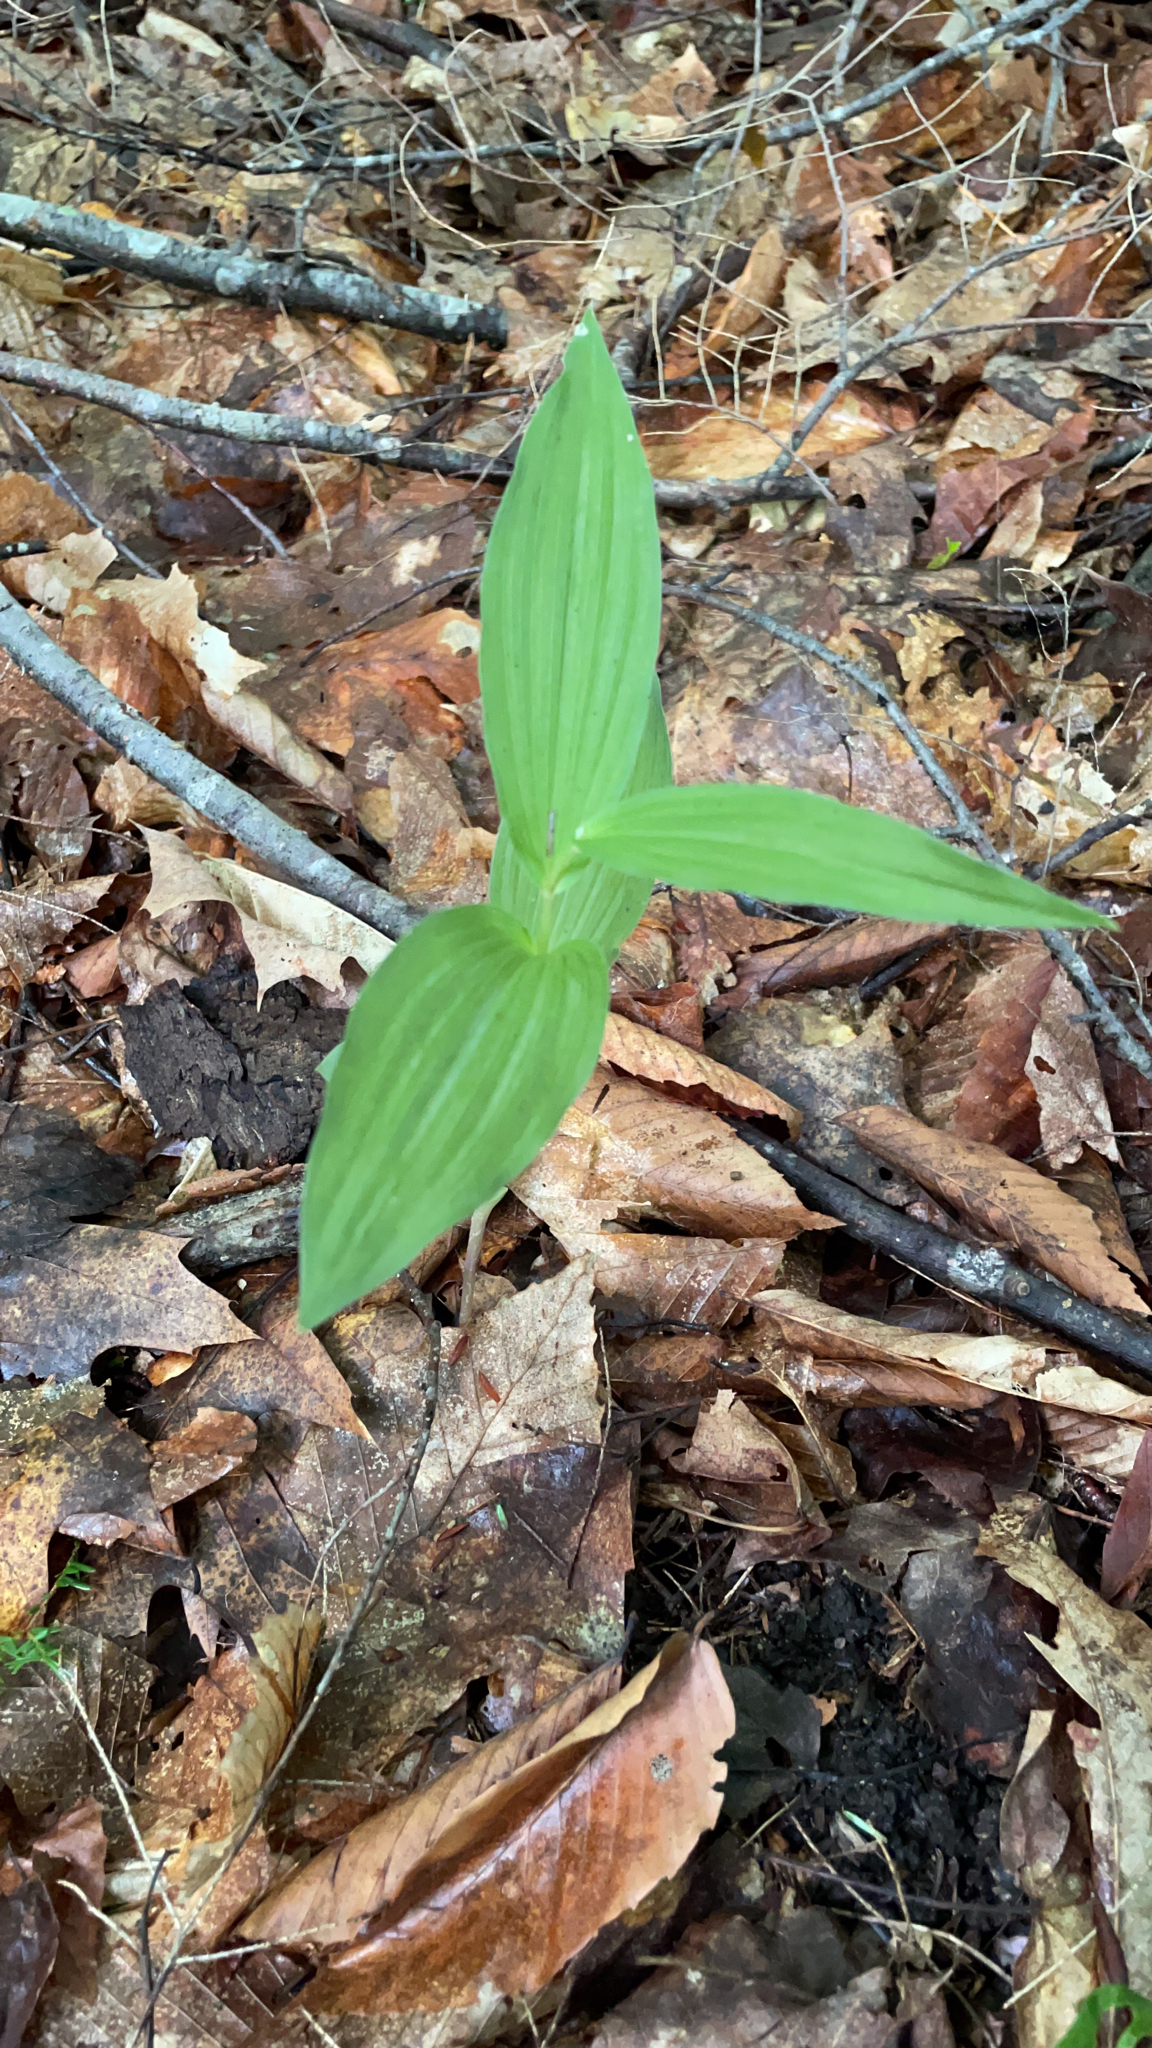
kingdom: Plantae
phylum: Tracheophyta
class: Liliopsida
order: Asparagales
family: Orchidaceae
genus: Epipactis
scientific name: Epipactis helleborine
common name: Broad-leaved helleborine
